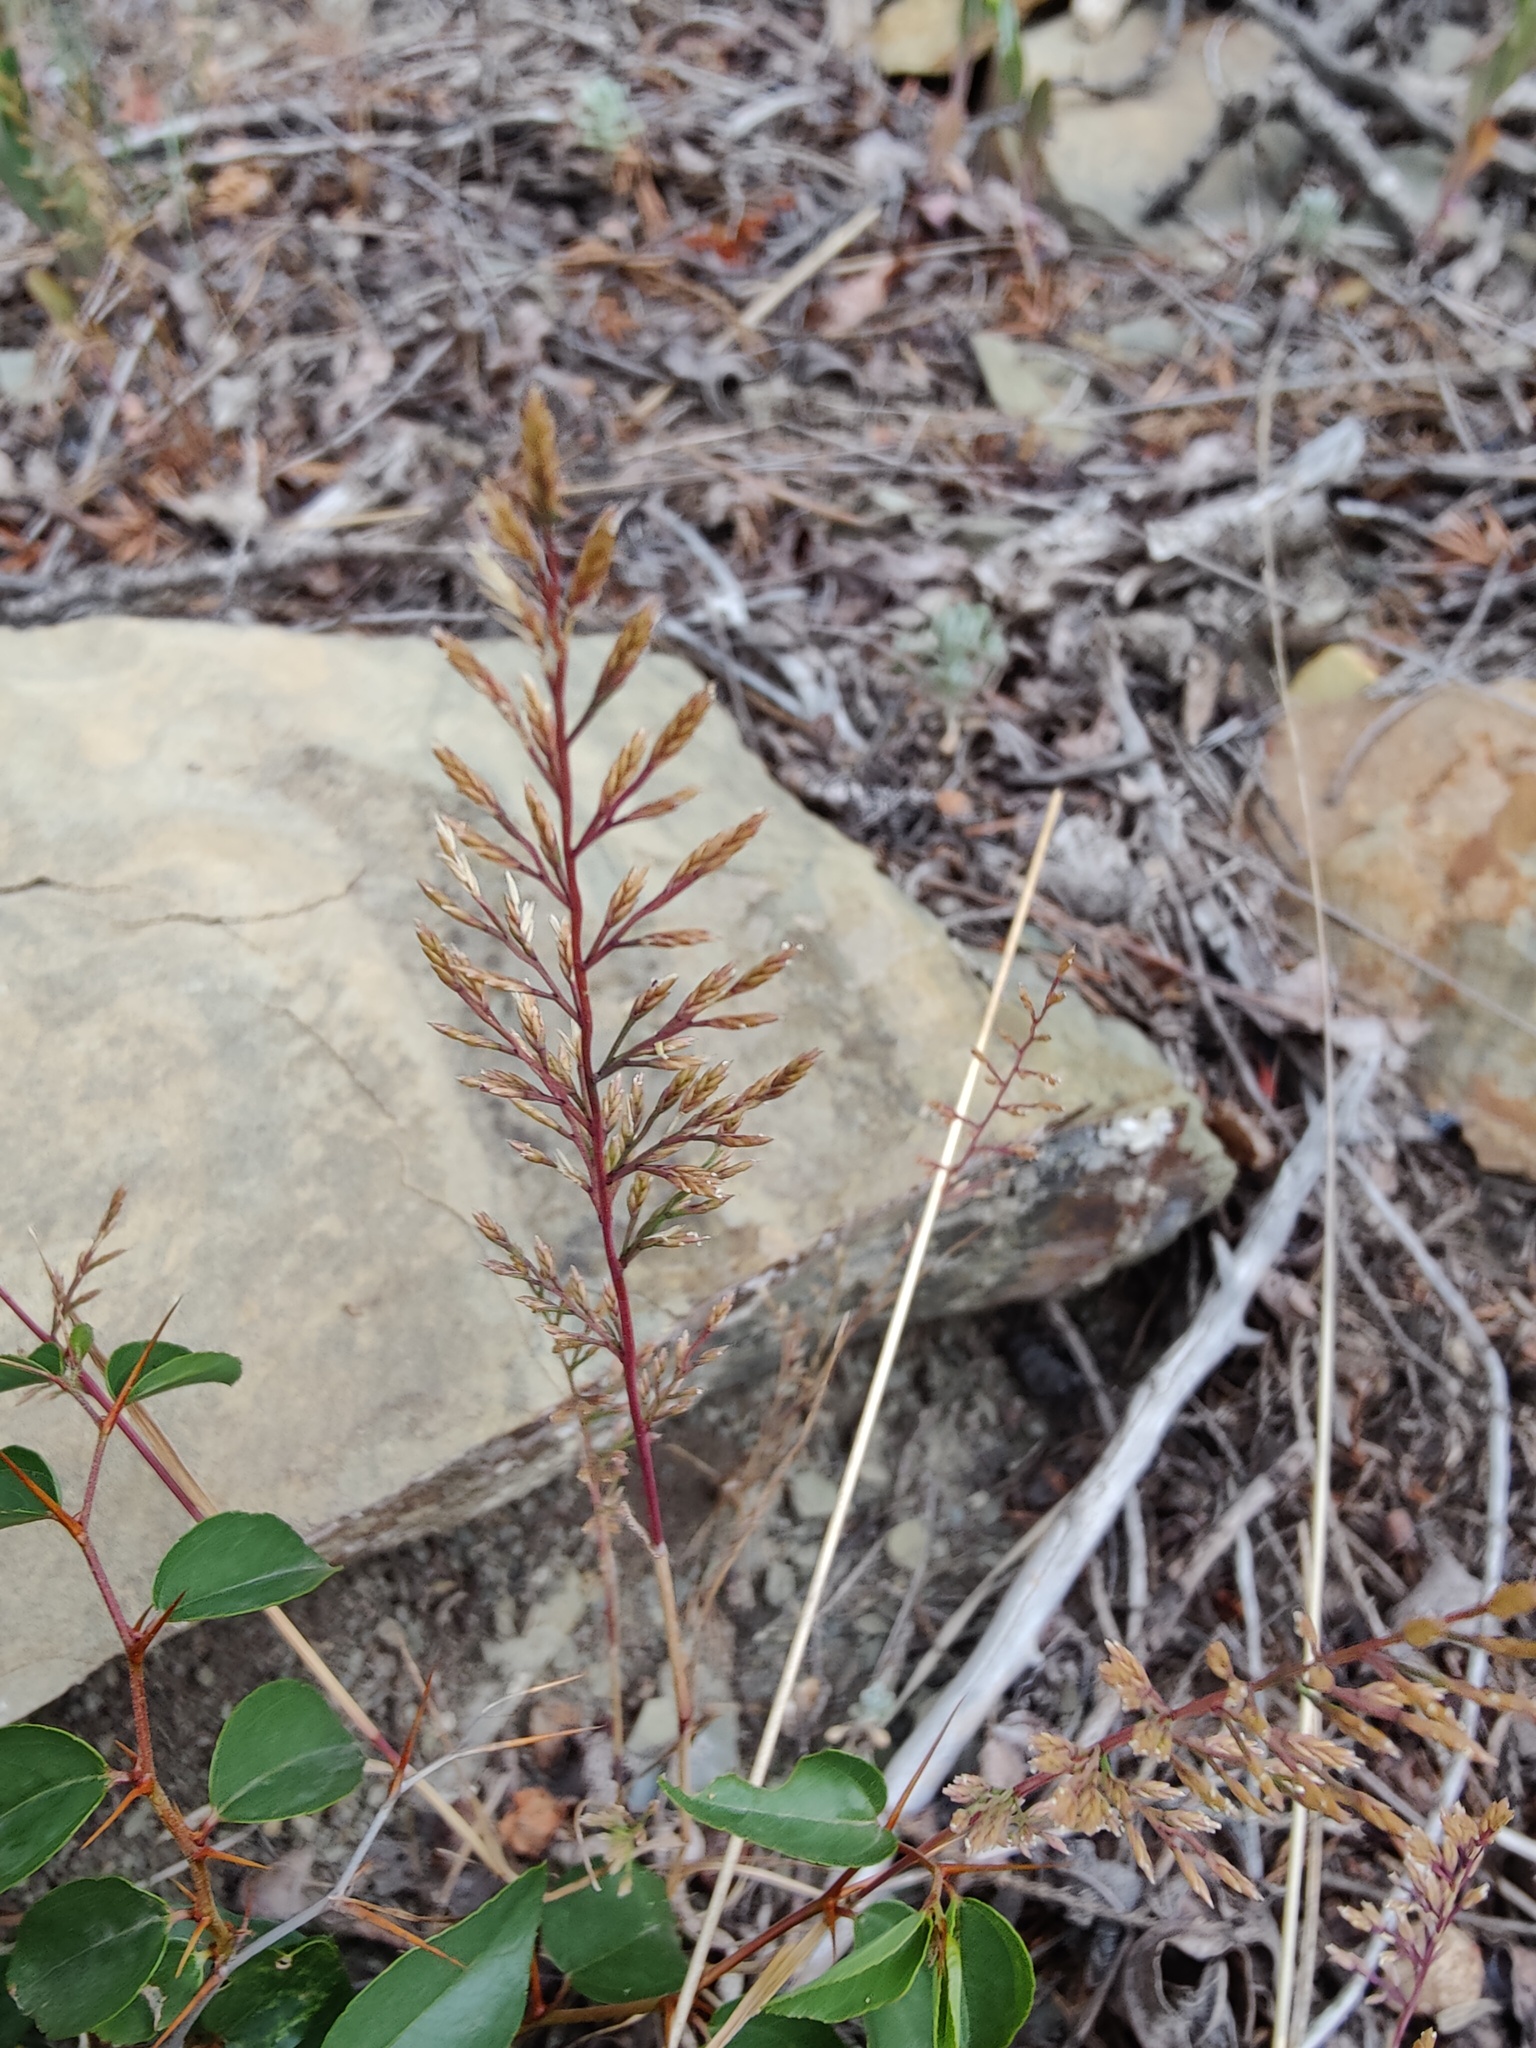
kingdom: Plantae
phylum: Tracheophyta
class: Liliopsida
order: Poales
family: Poaceae
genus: Catapodium
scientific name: Catapodium rigidum
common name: Fern-grass
